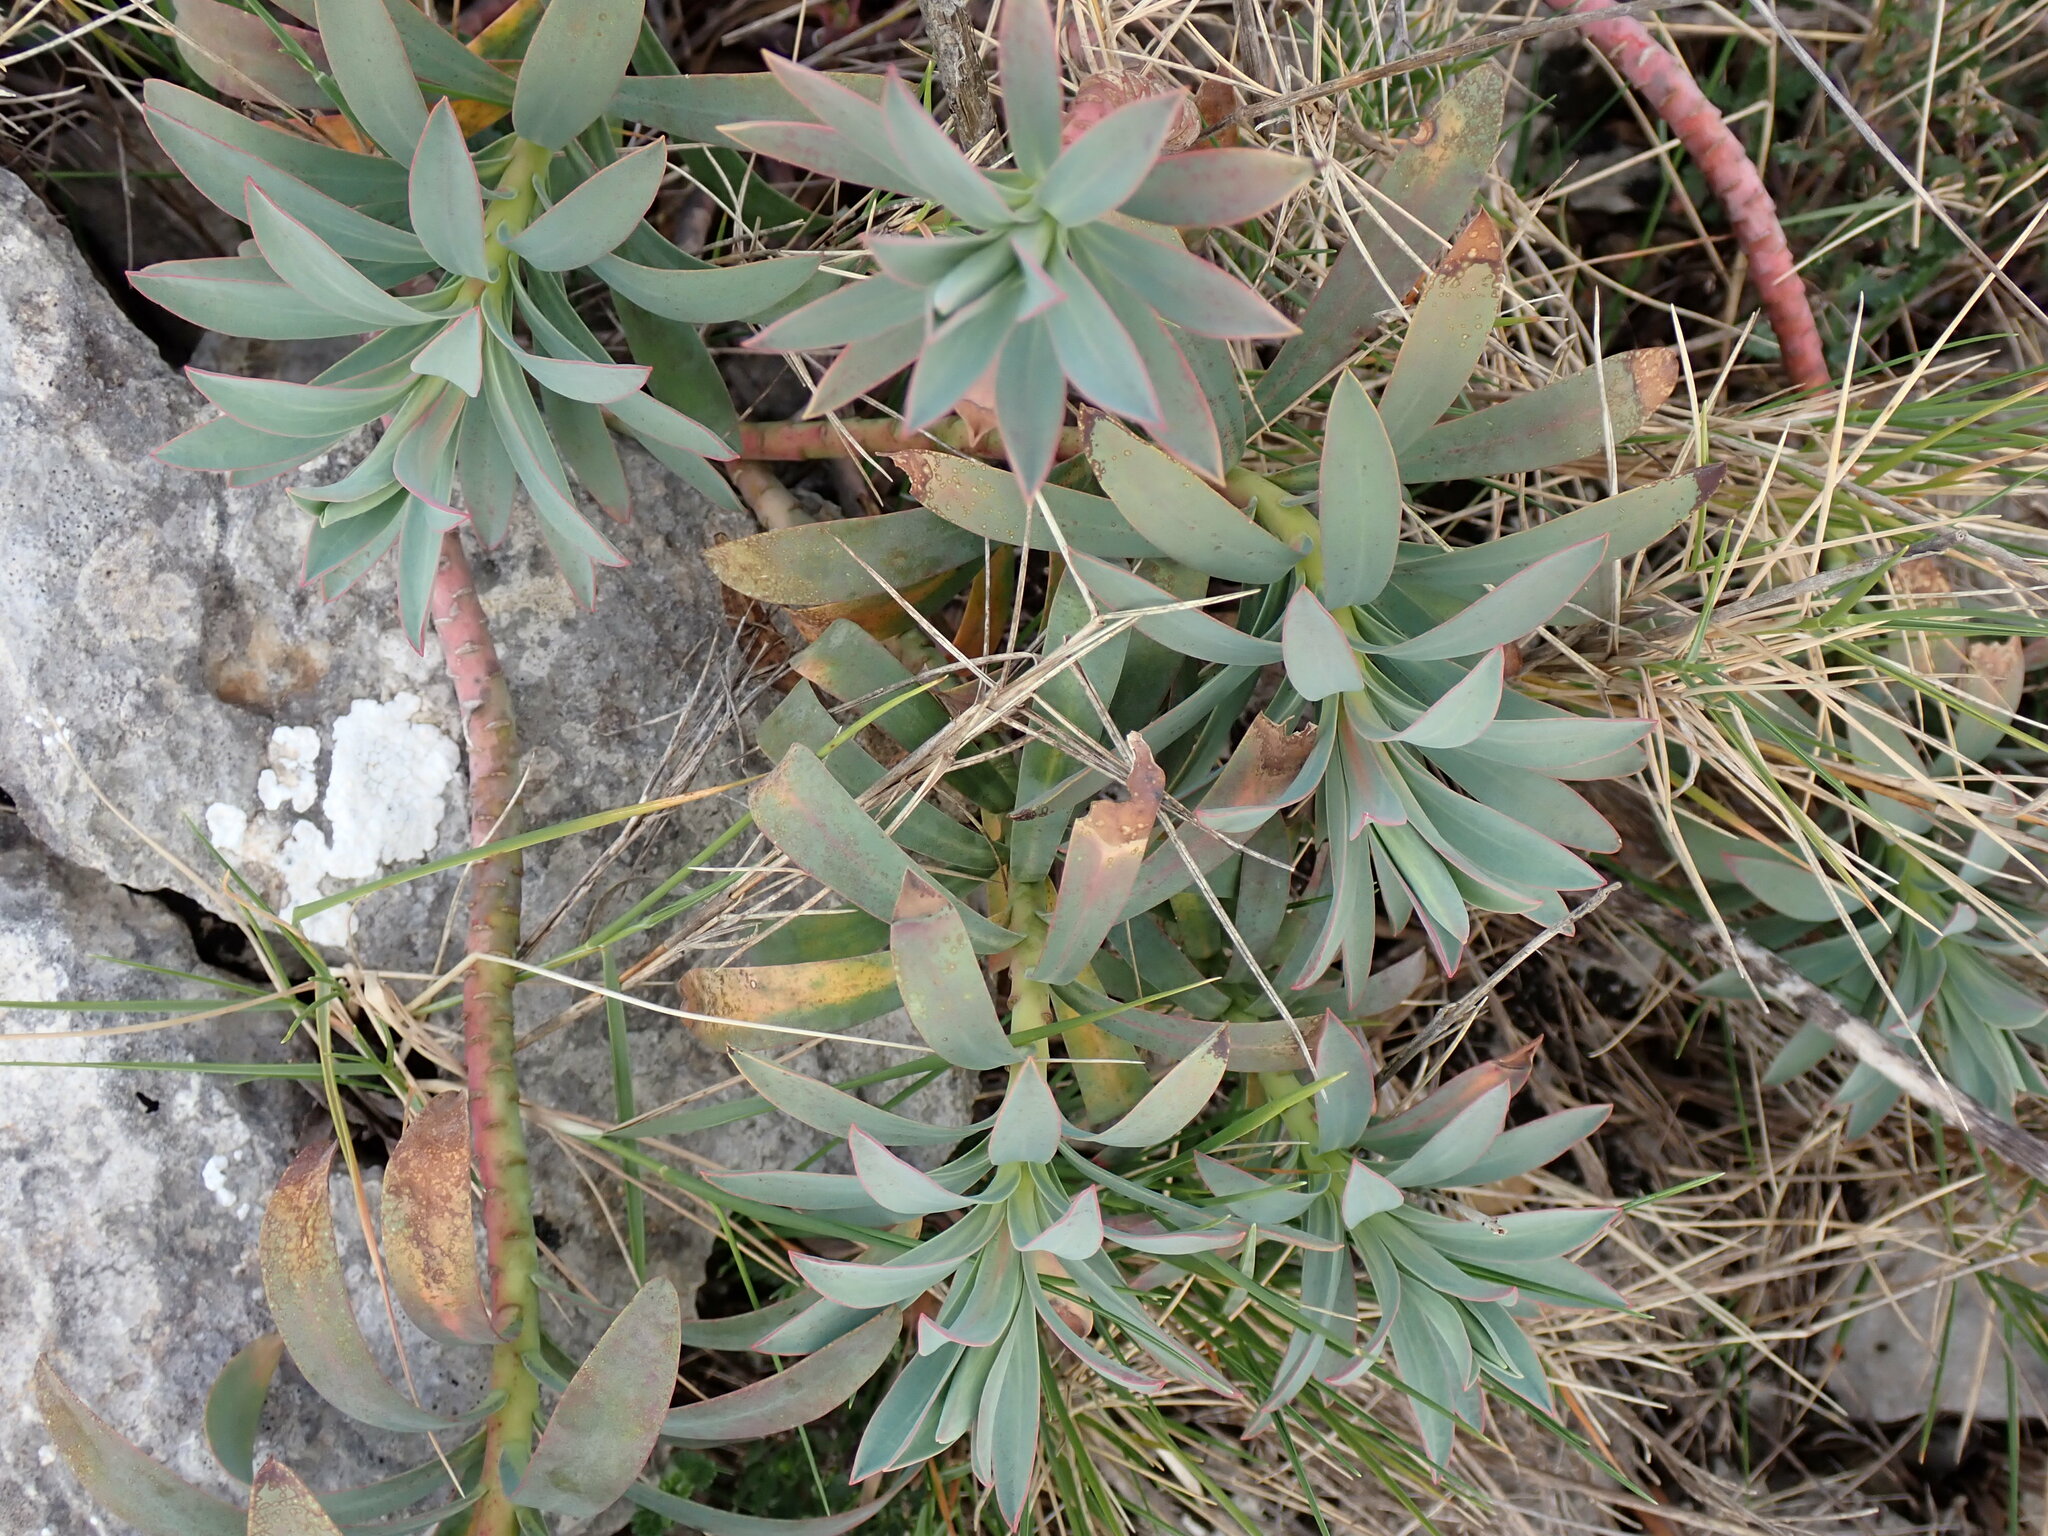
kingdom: Plantae
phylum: Tracheophyta
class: Magnoliopsida
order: Malpighiales
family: Euphorbiaceae
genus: Euphorbia
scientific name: Euphorbia nicaeensis
